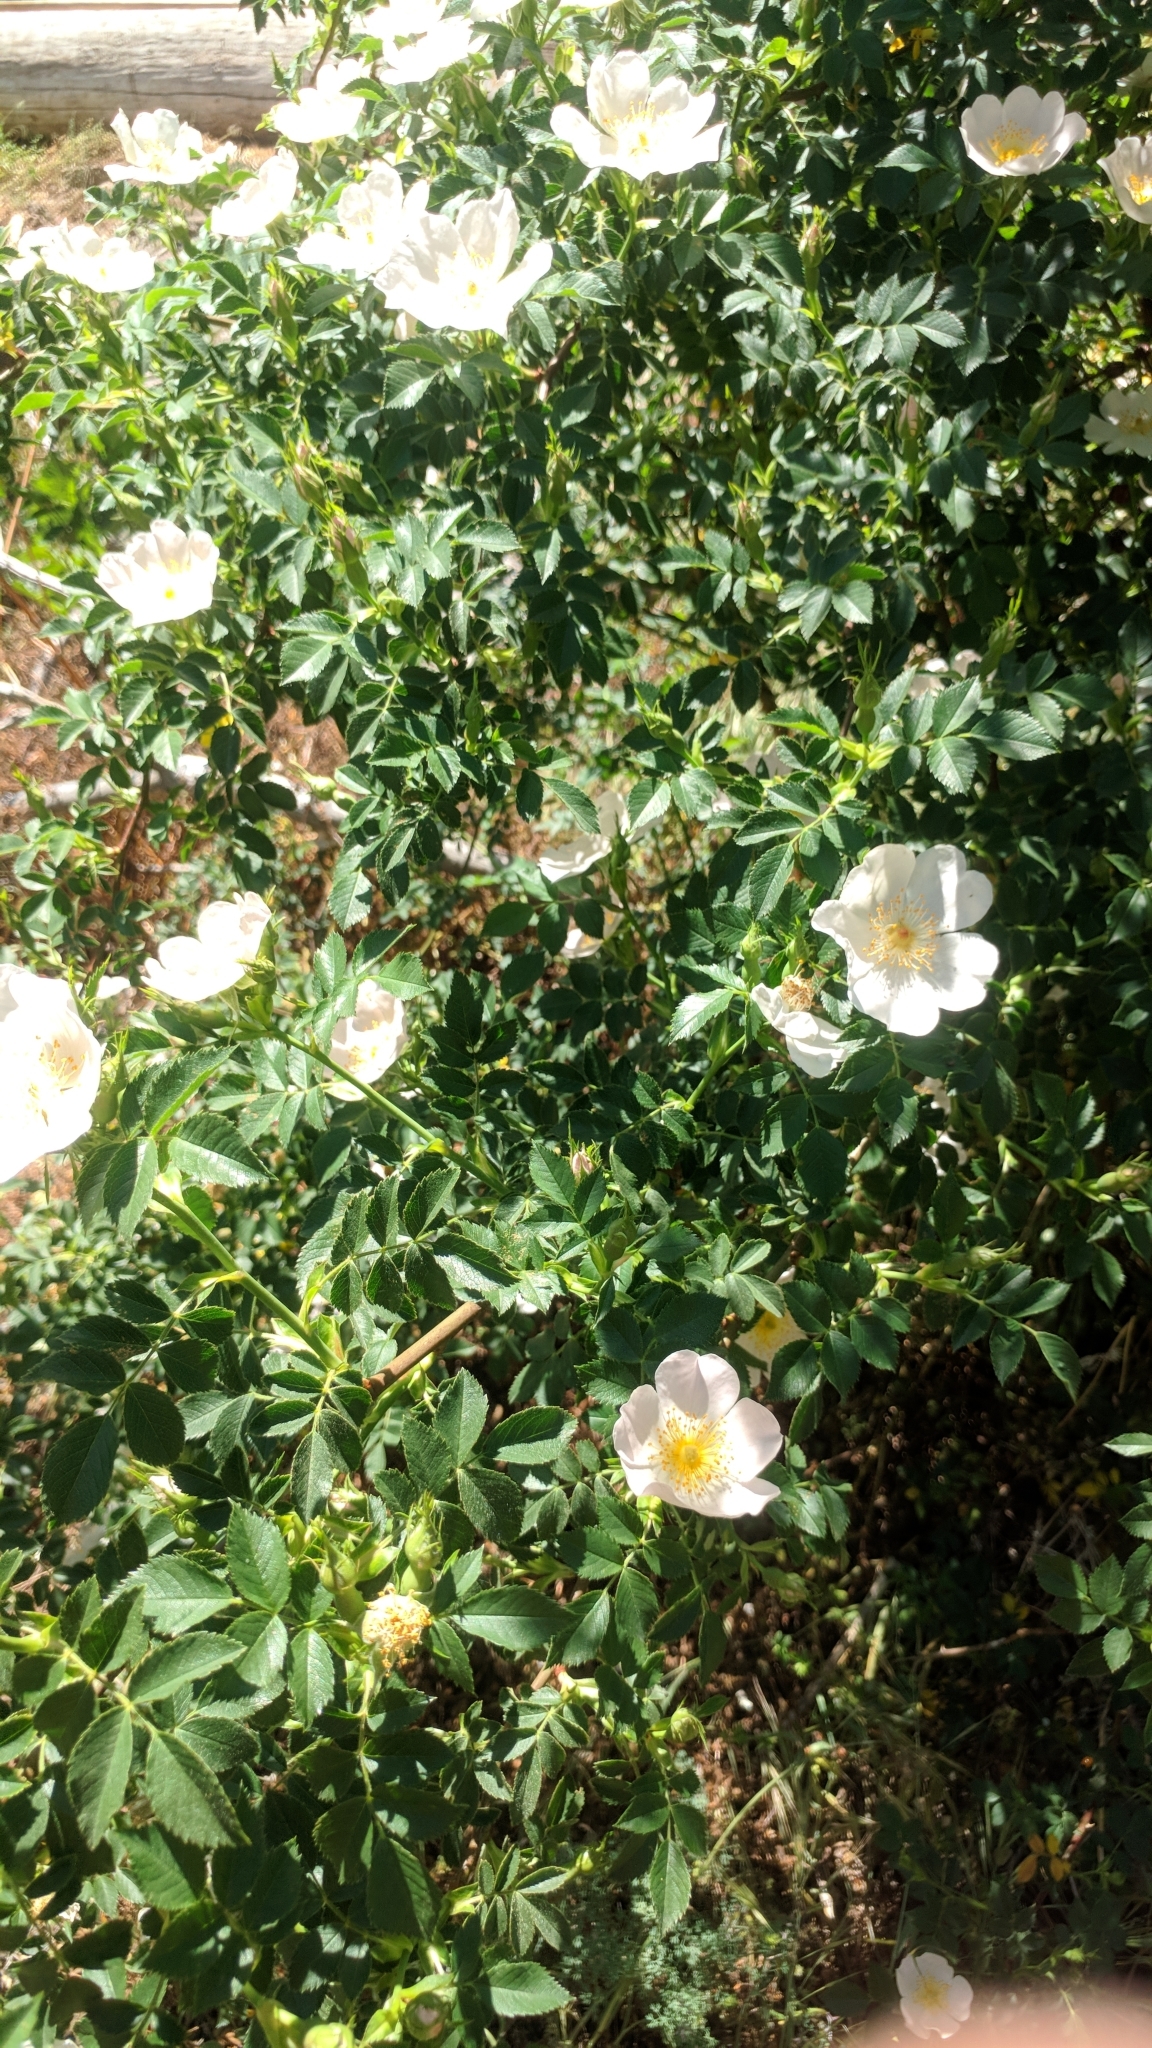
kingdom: Plantae
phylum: Tracheophyta
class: Magnoliopsida
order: Rosales
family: Rosaceae
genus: Rosa
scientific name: Rosa canina
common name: Dog rose
